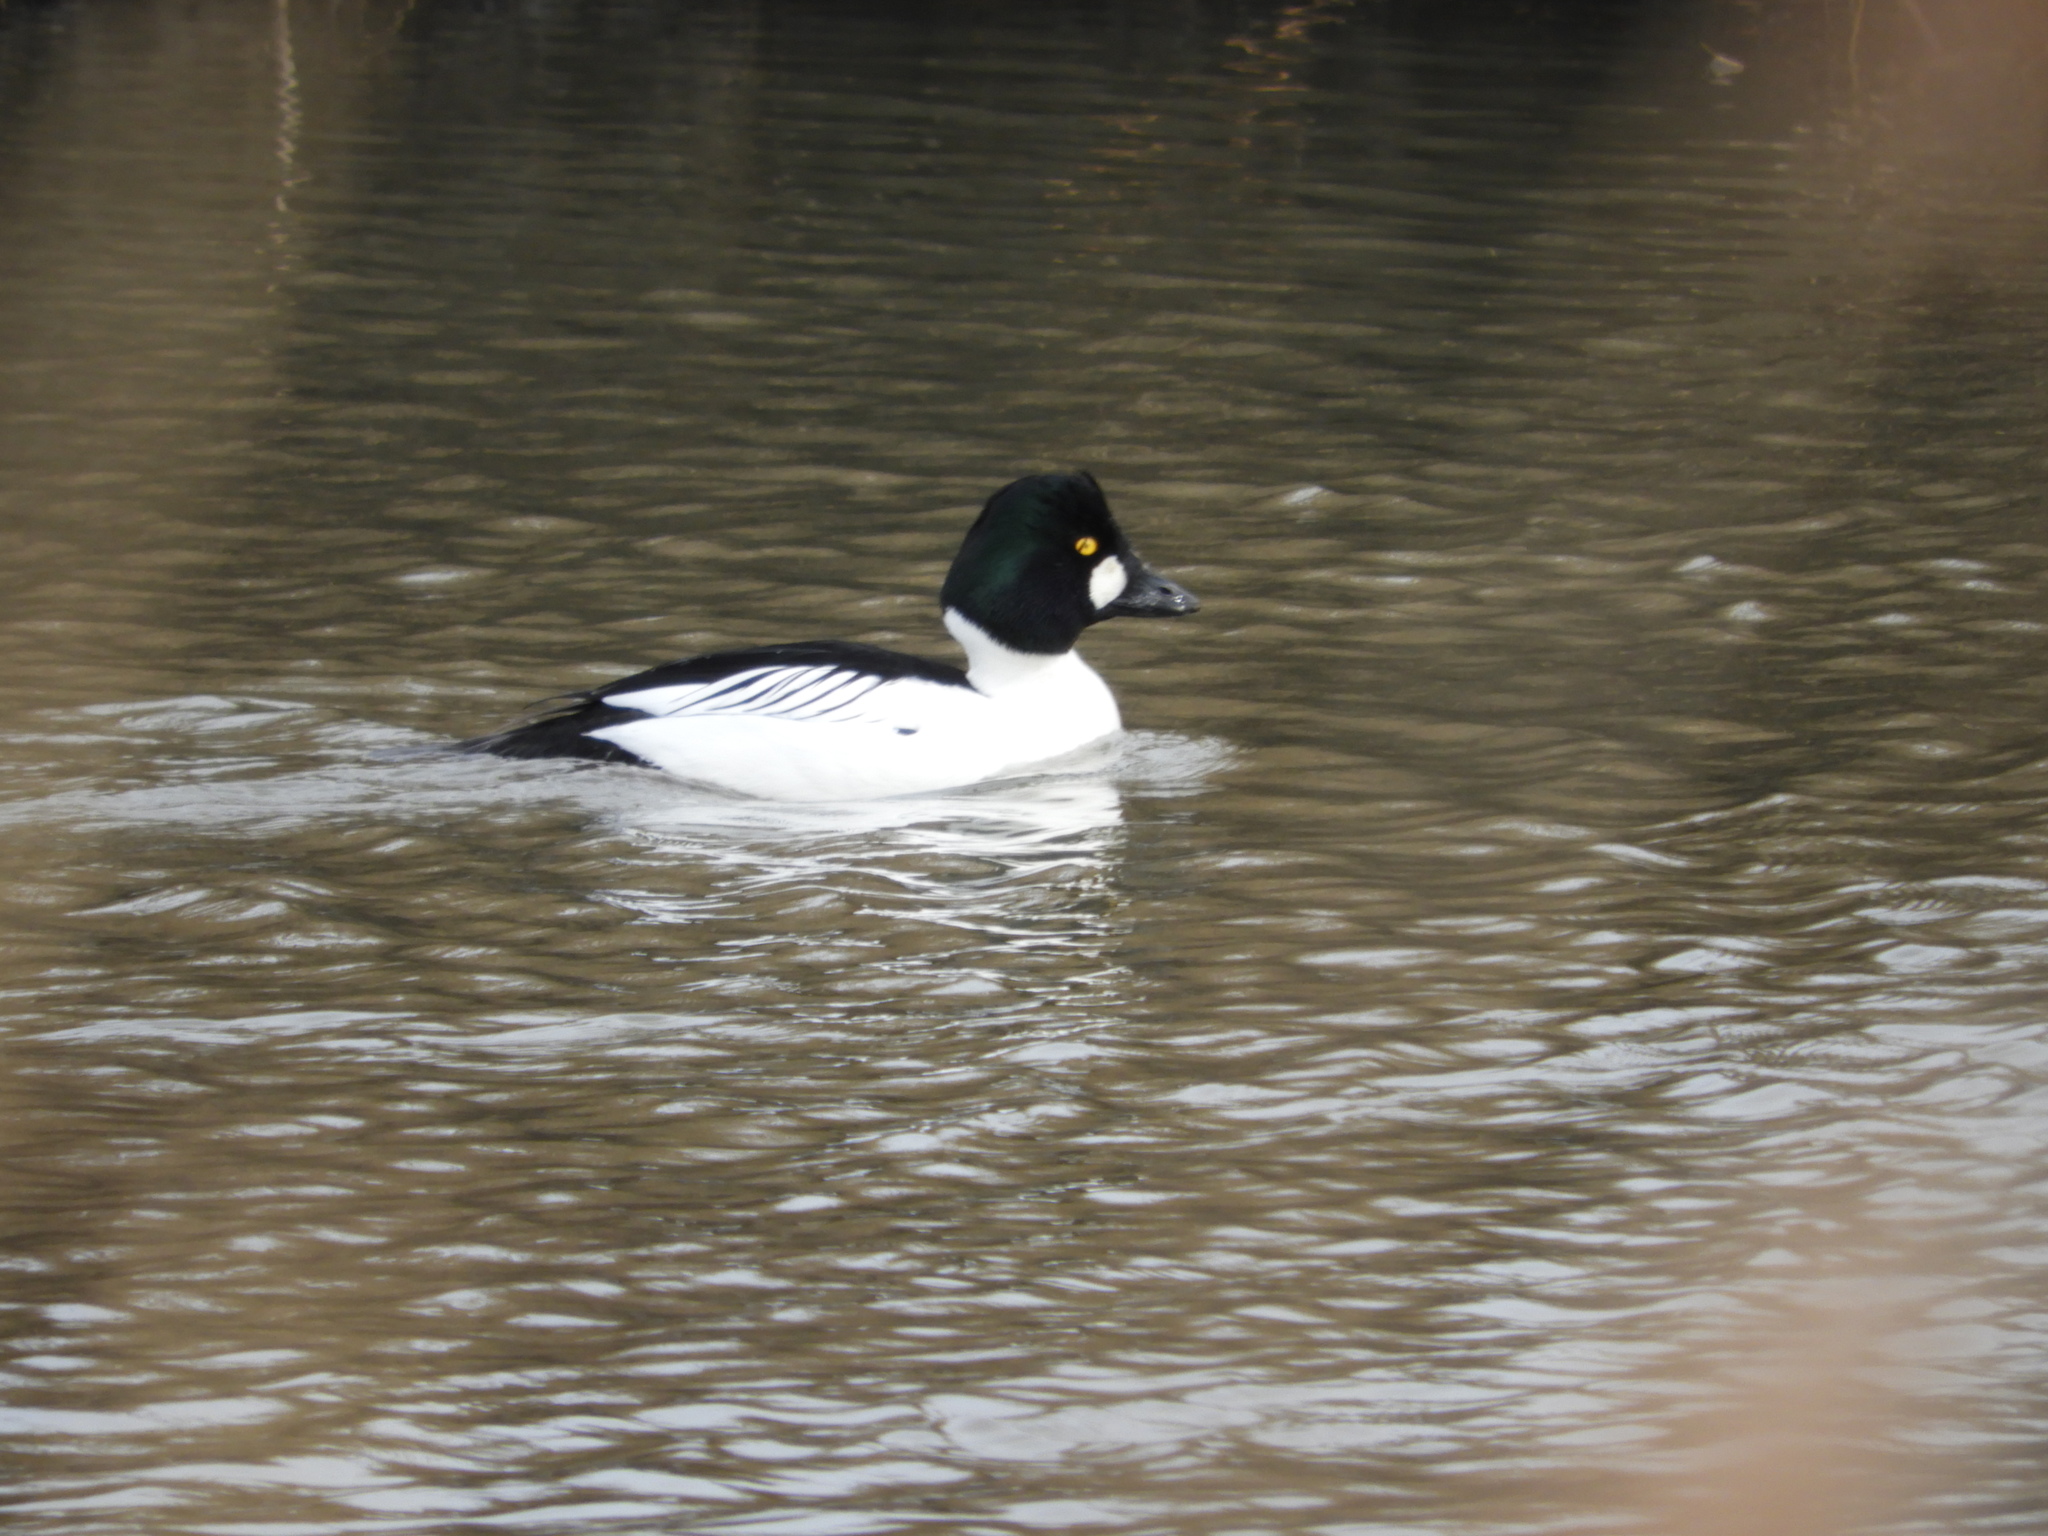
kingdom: Animalia
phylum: Chordata
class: Aves
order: Anseriformes
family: Anatidae
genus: Bucephala
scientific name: Bucephala clangula
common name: Common goldeneye
